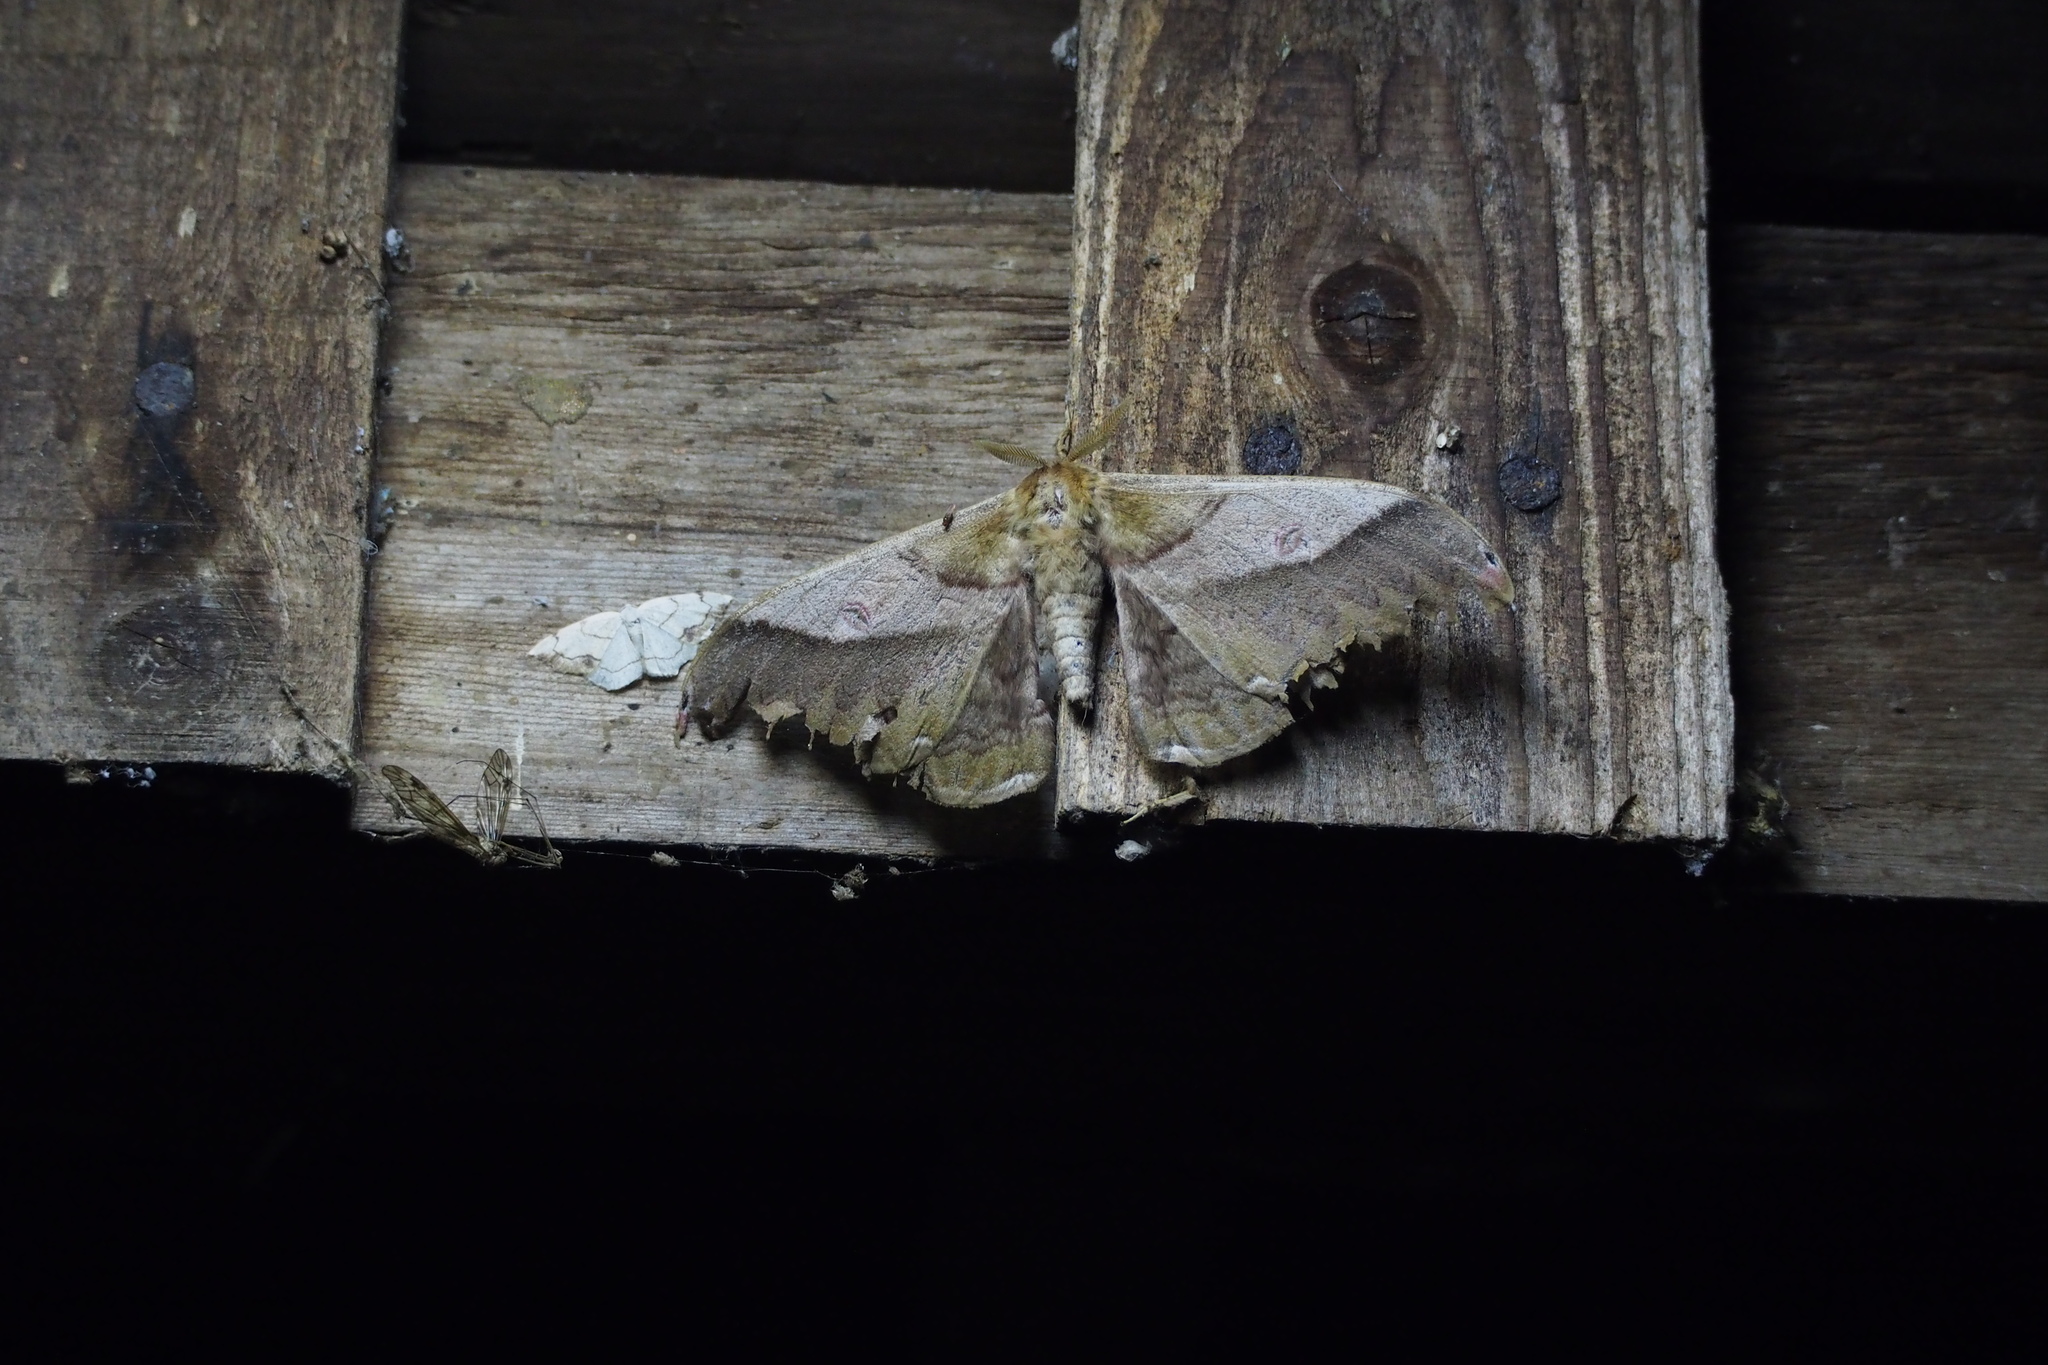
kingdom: Animalia
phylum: Arthropoda
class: Insecta
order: Lepidoptera
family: Saturniidae
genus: Saturnia
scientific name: Saturnia japonica
